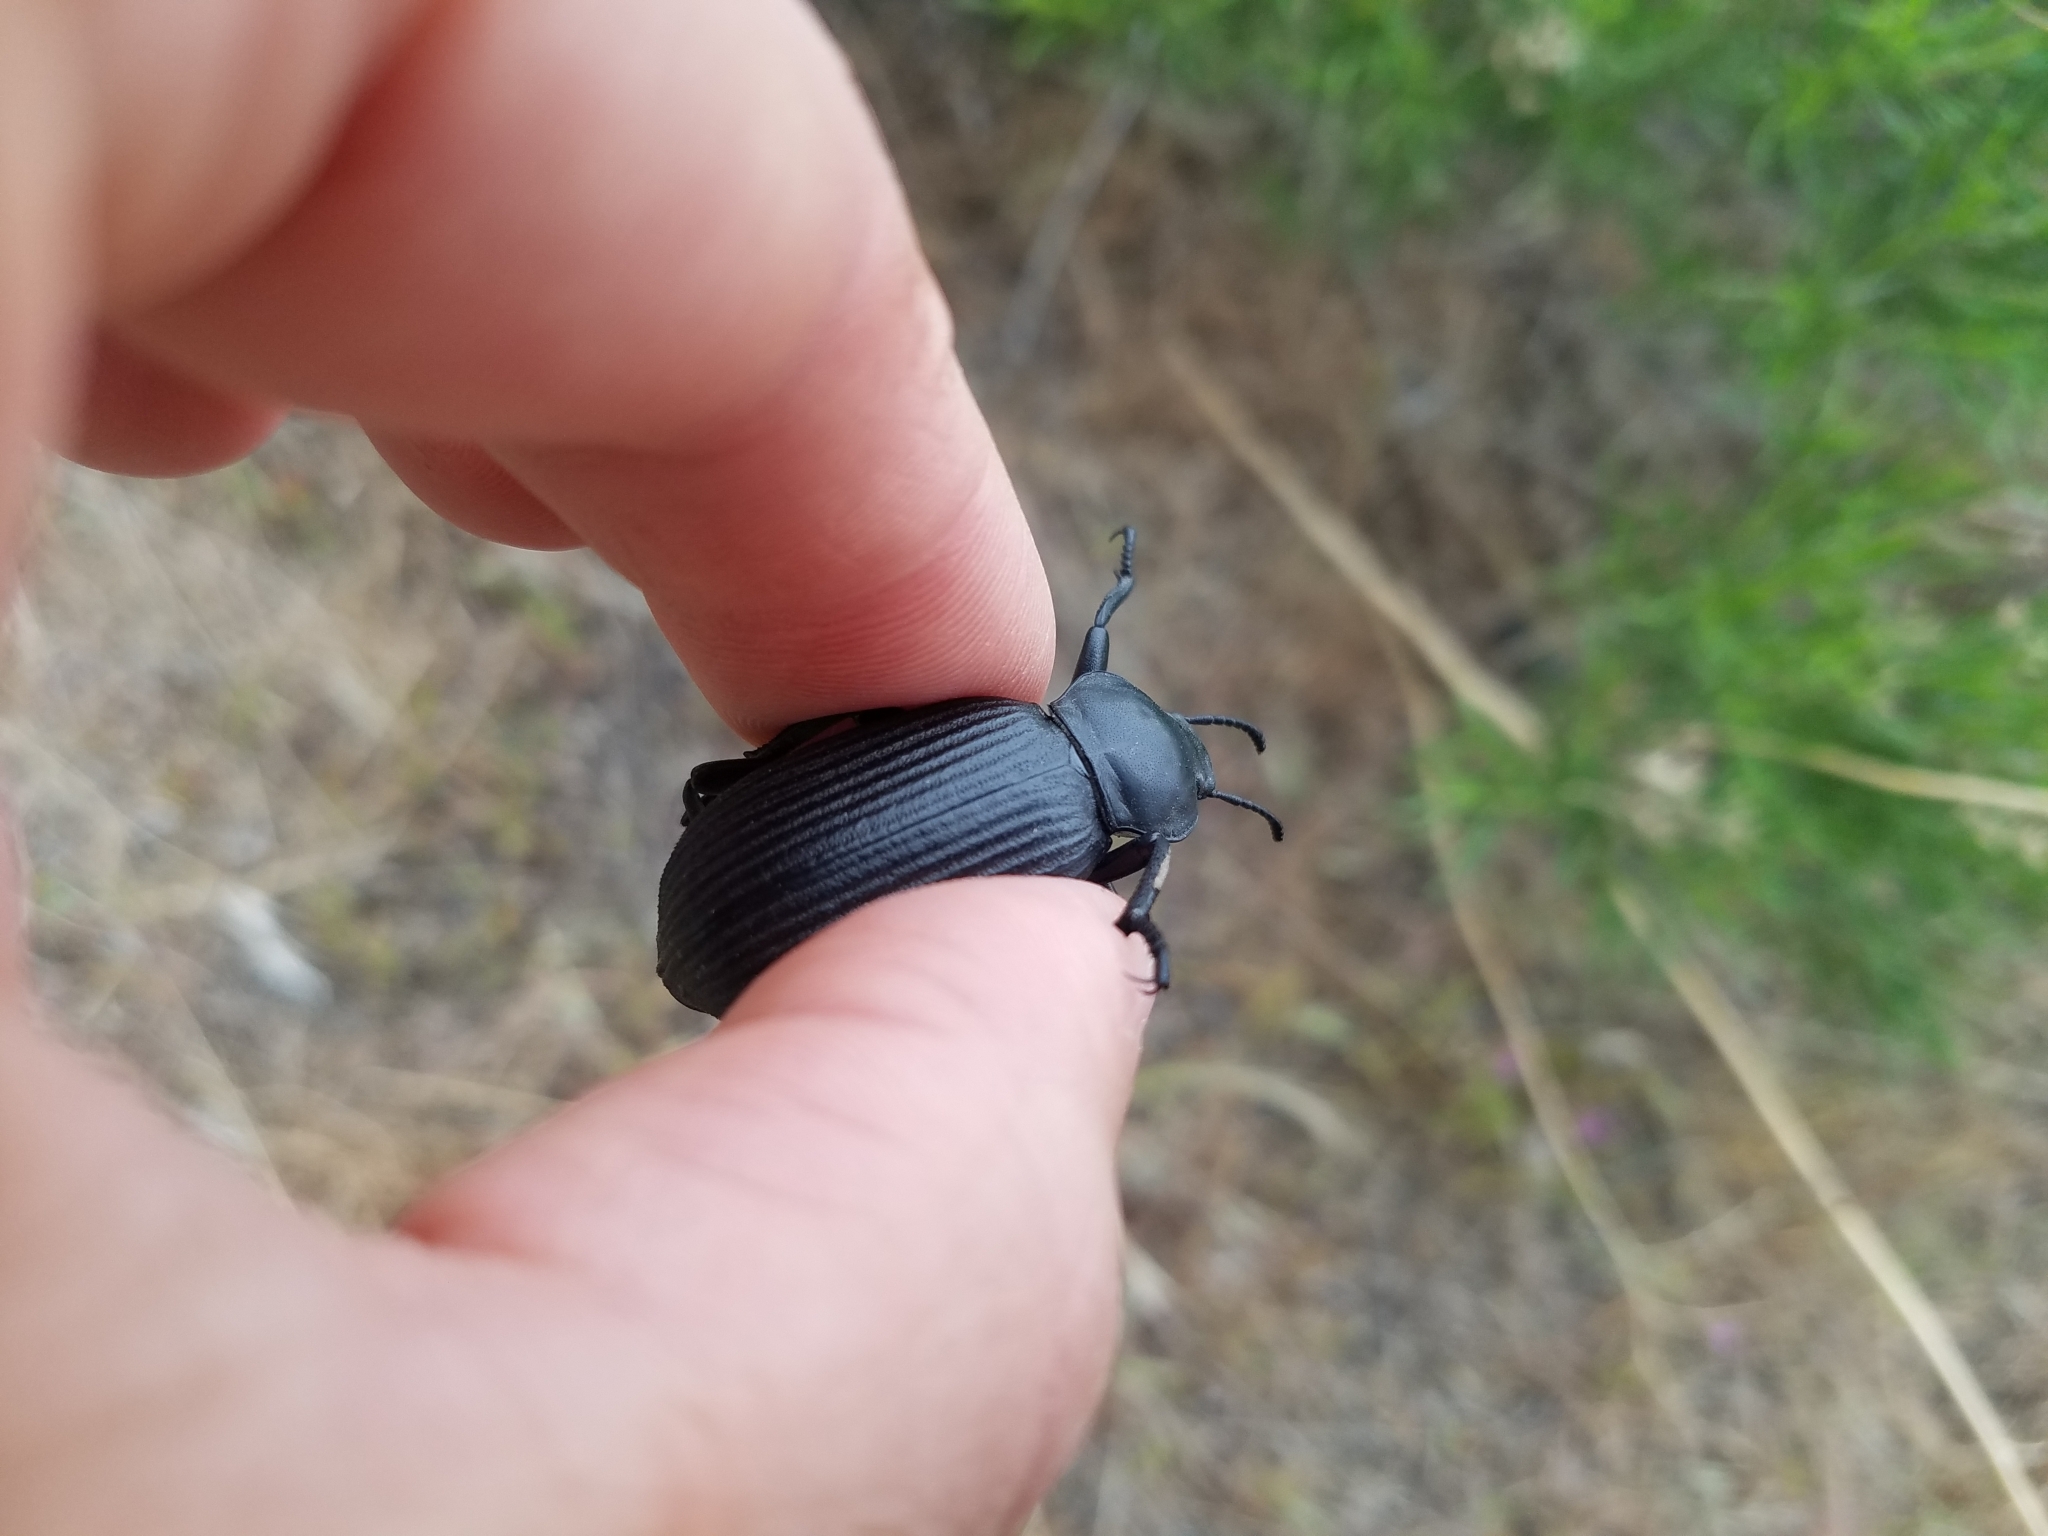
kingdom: Animalia
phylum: Arthropoda
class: Insecta
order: Coleoptera
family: Tenebrionidae
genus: Eleodes
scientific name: Eleodes obscura
